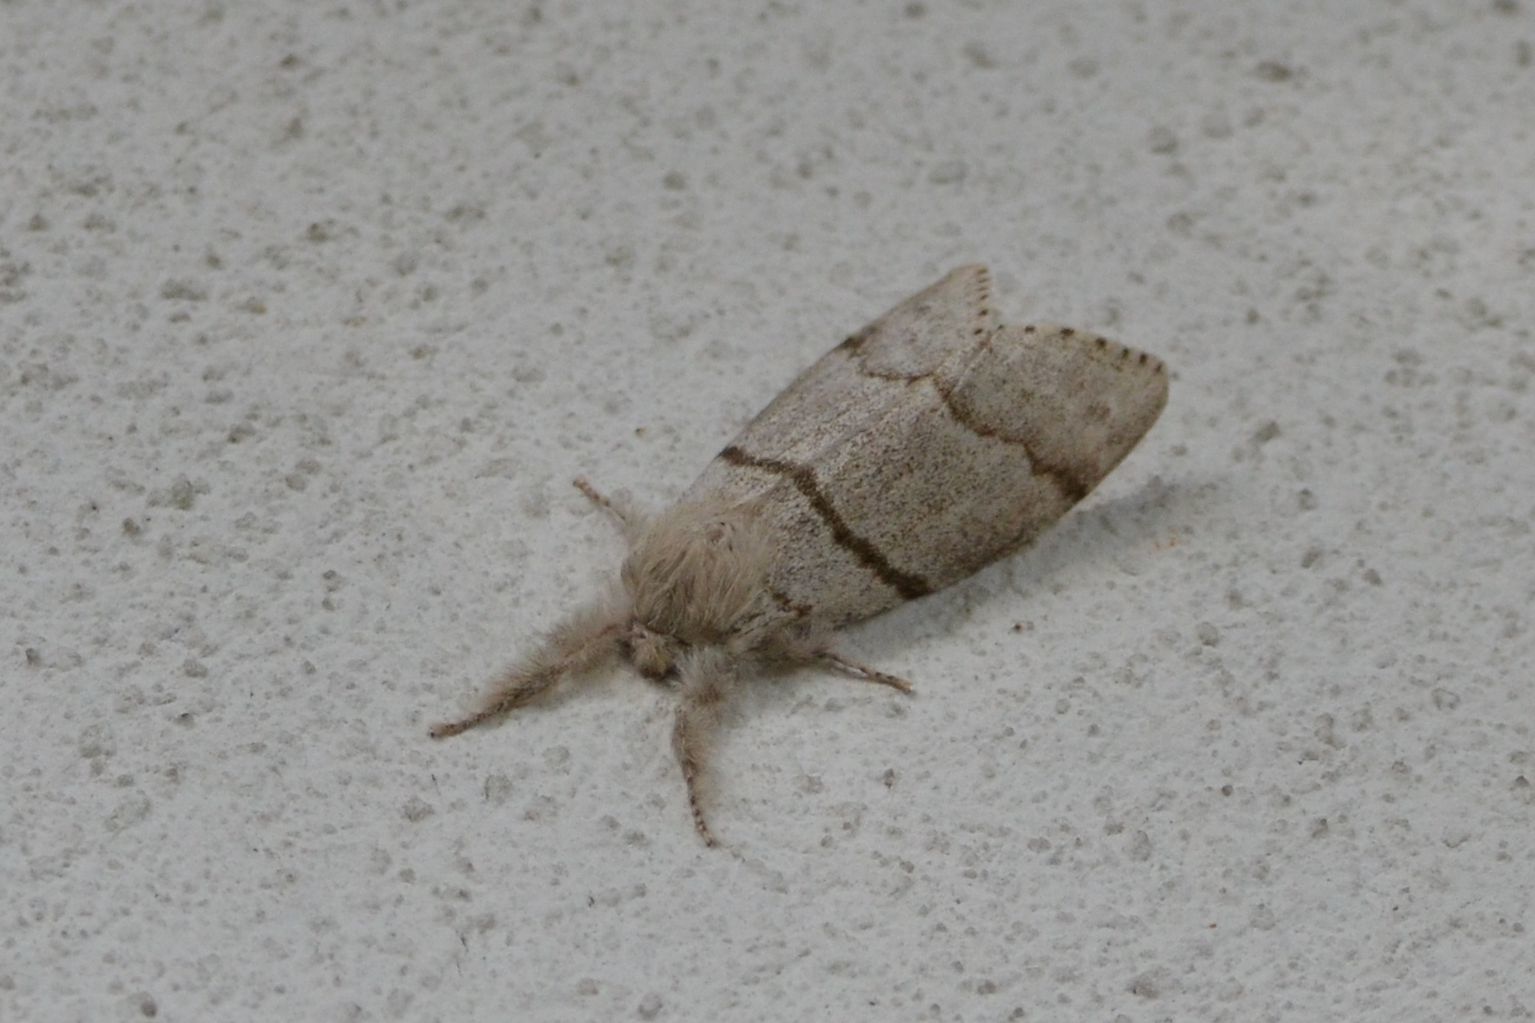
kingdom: Animalia
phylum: Arthropoda
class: Insecta
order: Lepidoptera
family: Erebidae
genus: Calliteara
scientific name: Calliteara pudibunda
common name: Pale tussock
